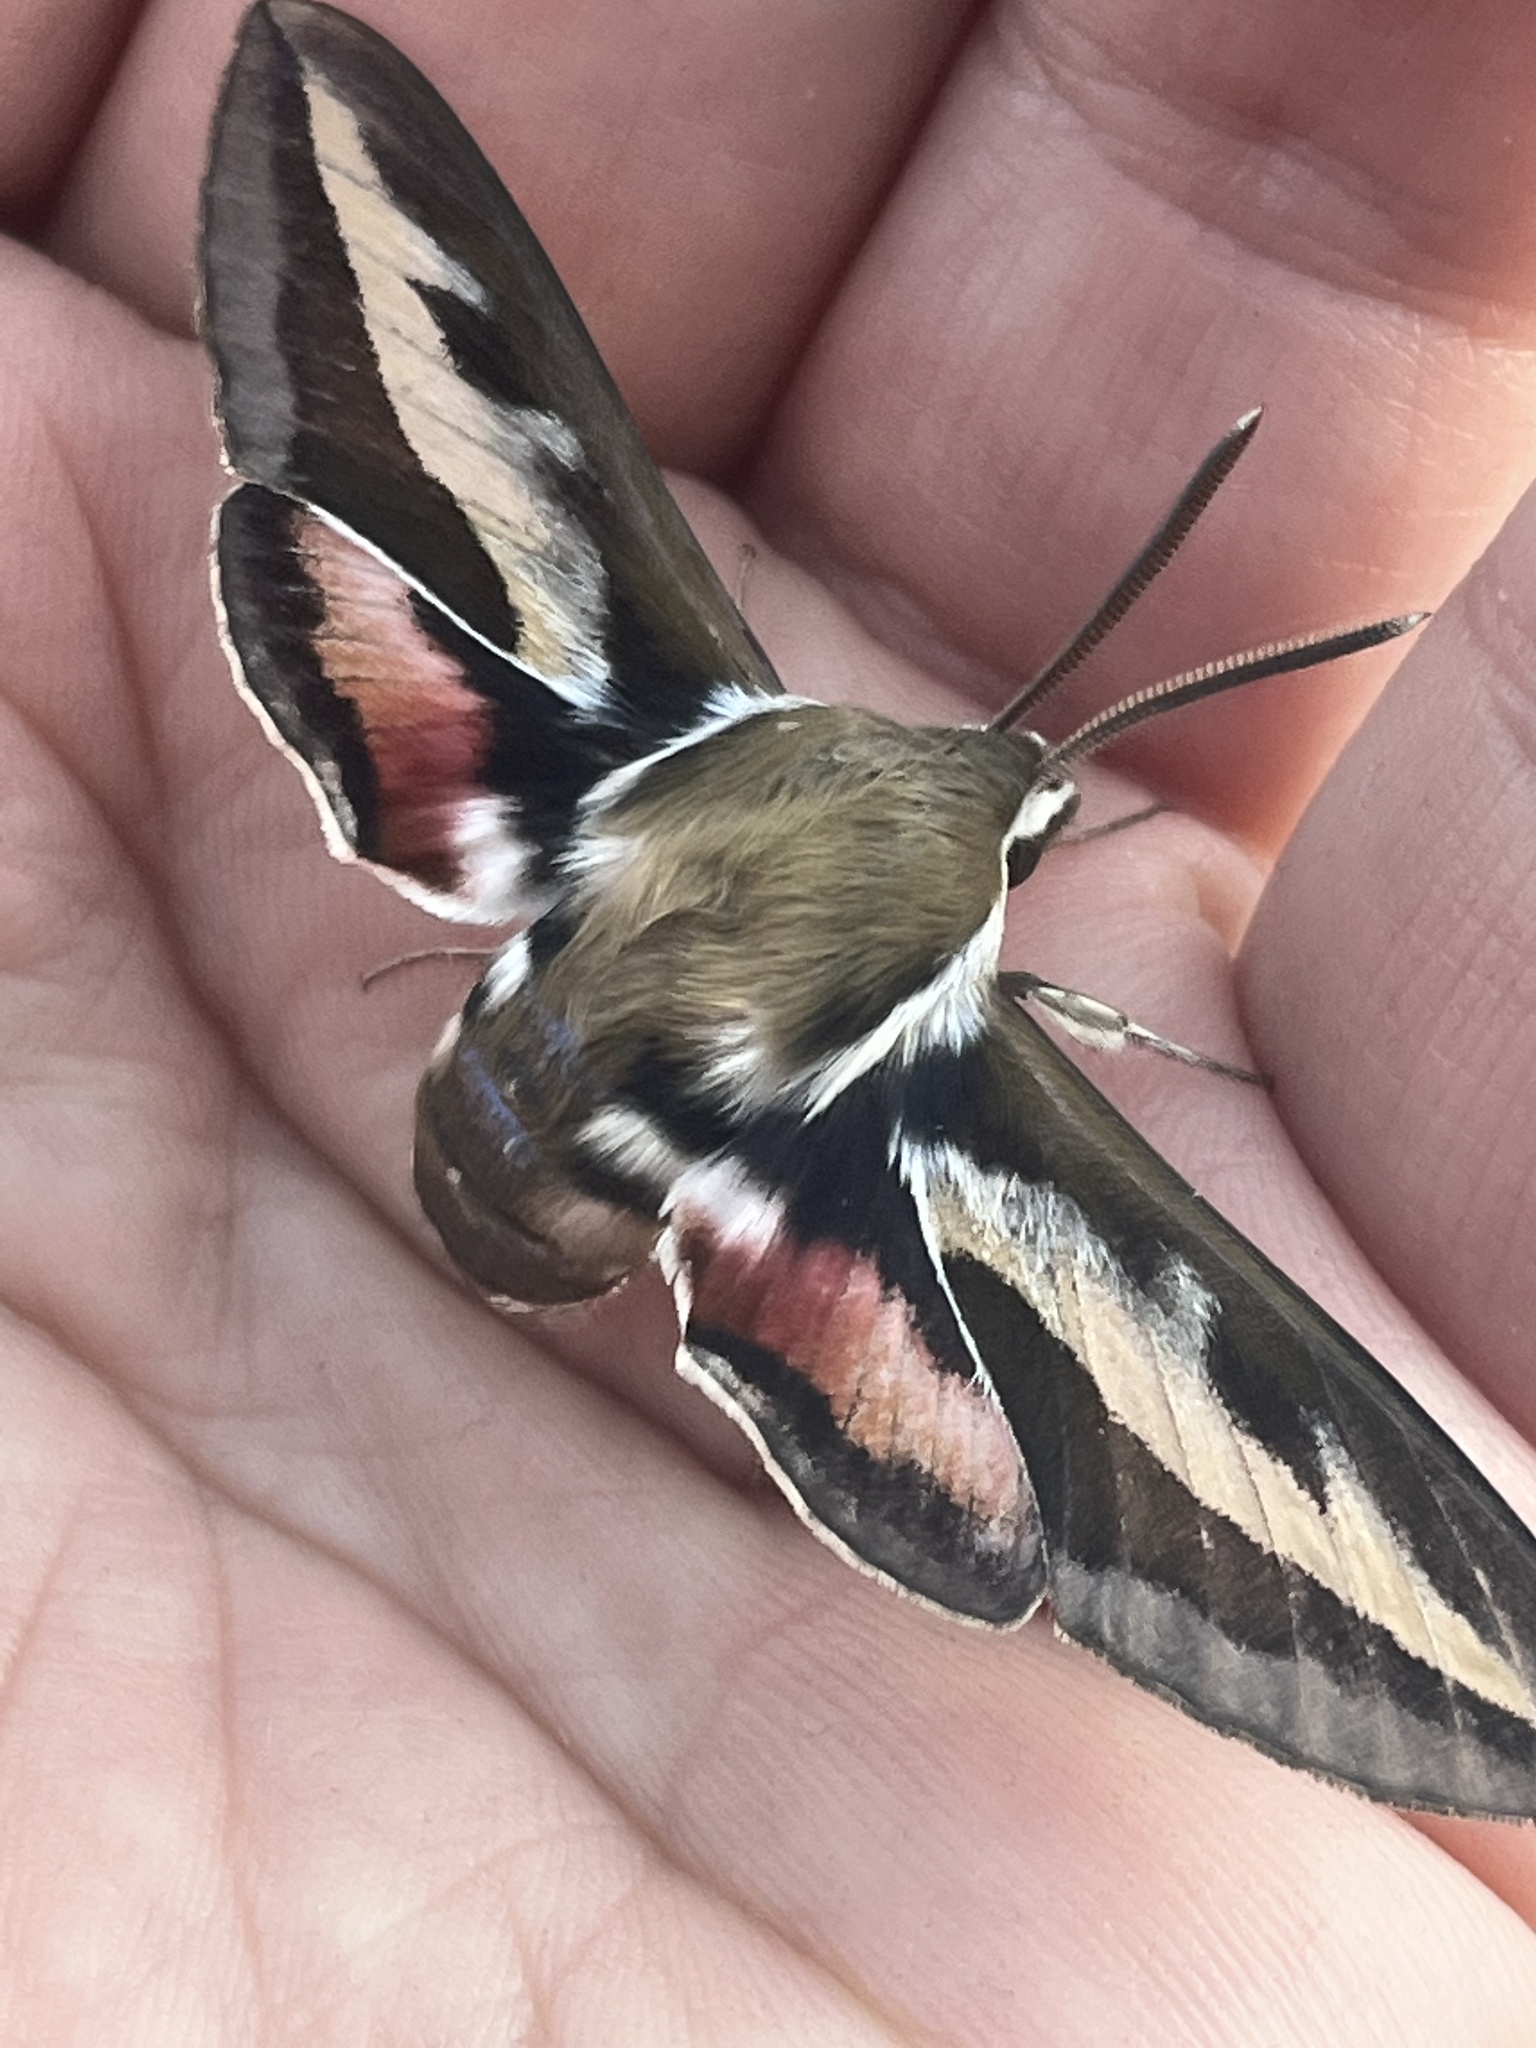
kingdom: Animalia
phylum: Arthropoda
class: Insecta
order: Lepidoptera
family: Sphingidae
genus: Hyles
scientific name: Hyles gallii
